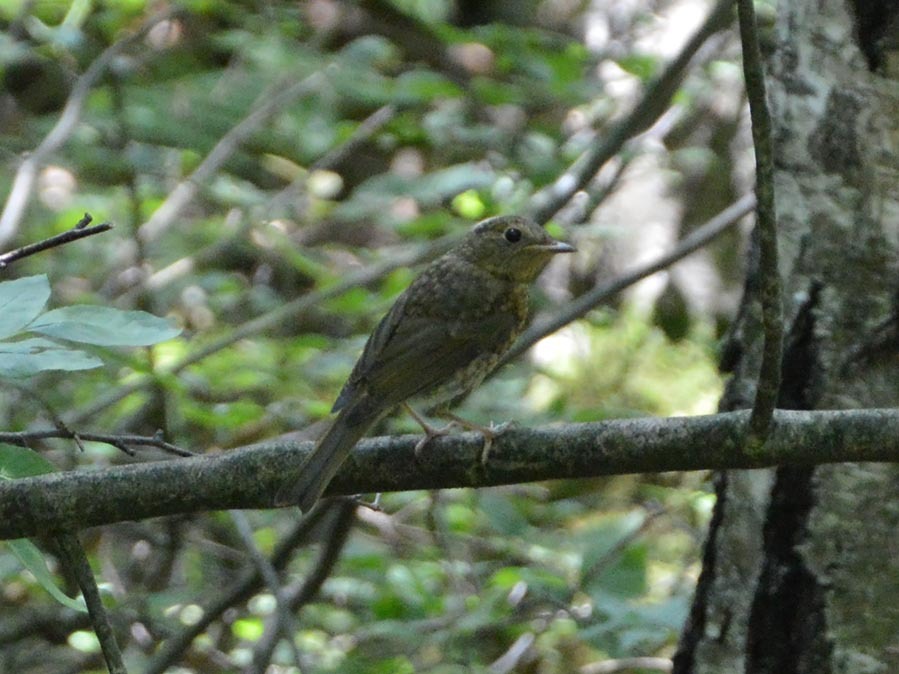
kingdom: Animalia
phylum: Chordata
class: Aves
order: Passeriformes
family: Muscicapidae
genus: Erithacus
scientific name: Erithacus rubecula
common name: European robin
